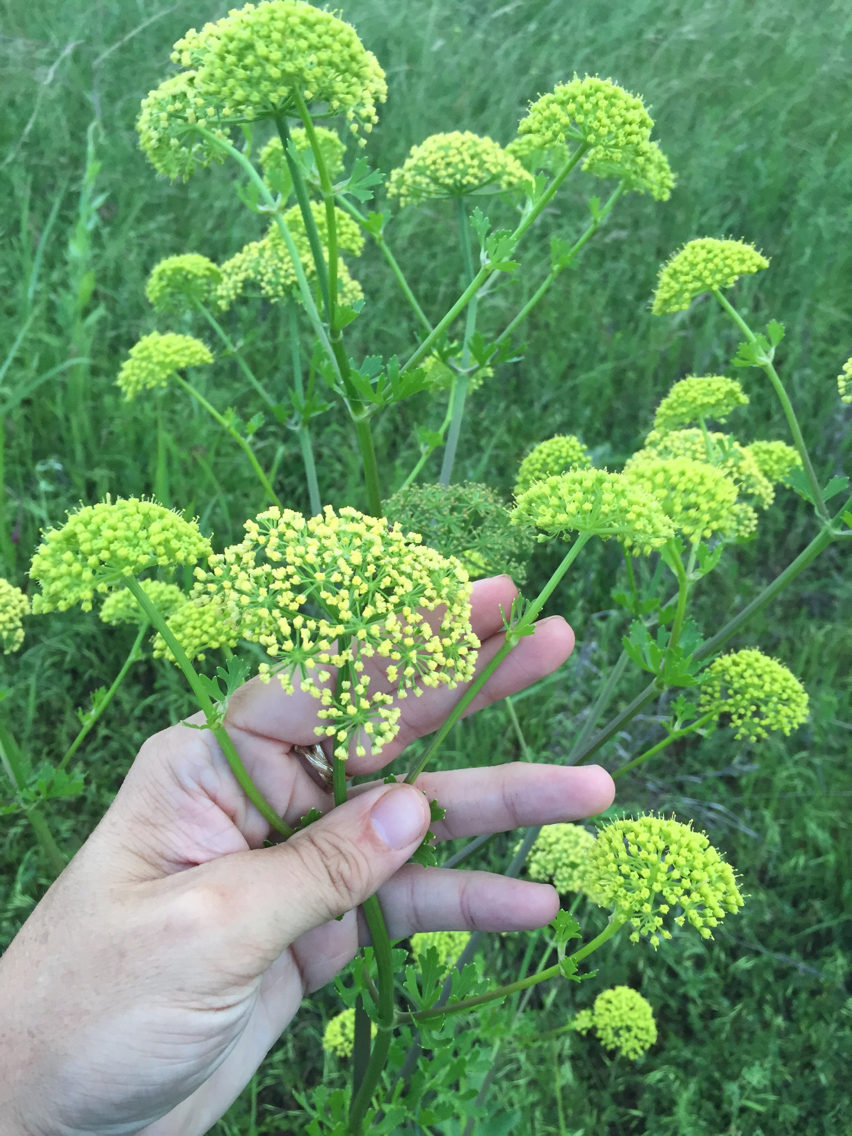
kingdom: Plantae
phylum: Tracheophyta
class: Magnoliopsida
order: Apiales
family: Apiaceae
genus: Polytaenia
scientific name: Polytaenia texana
